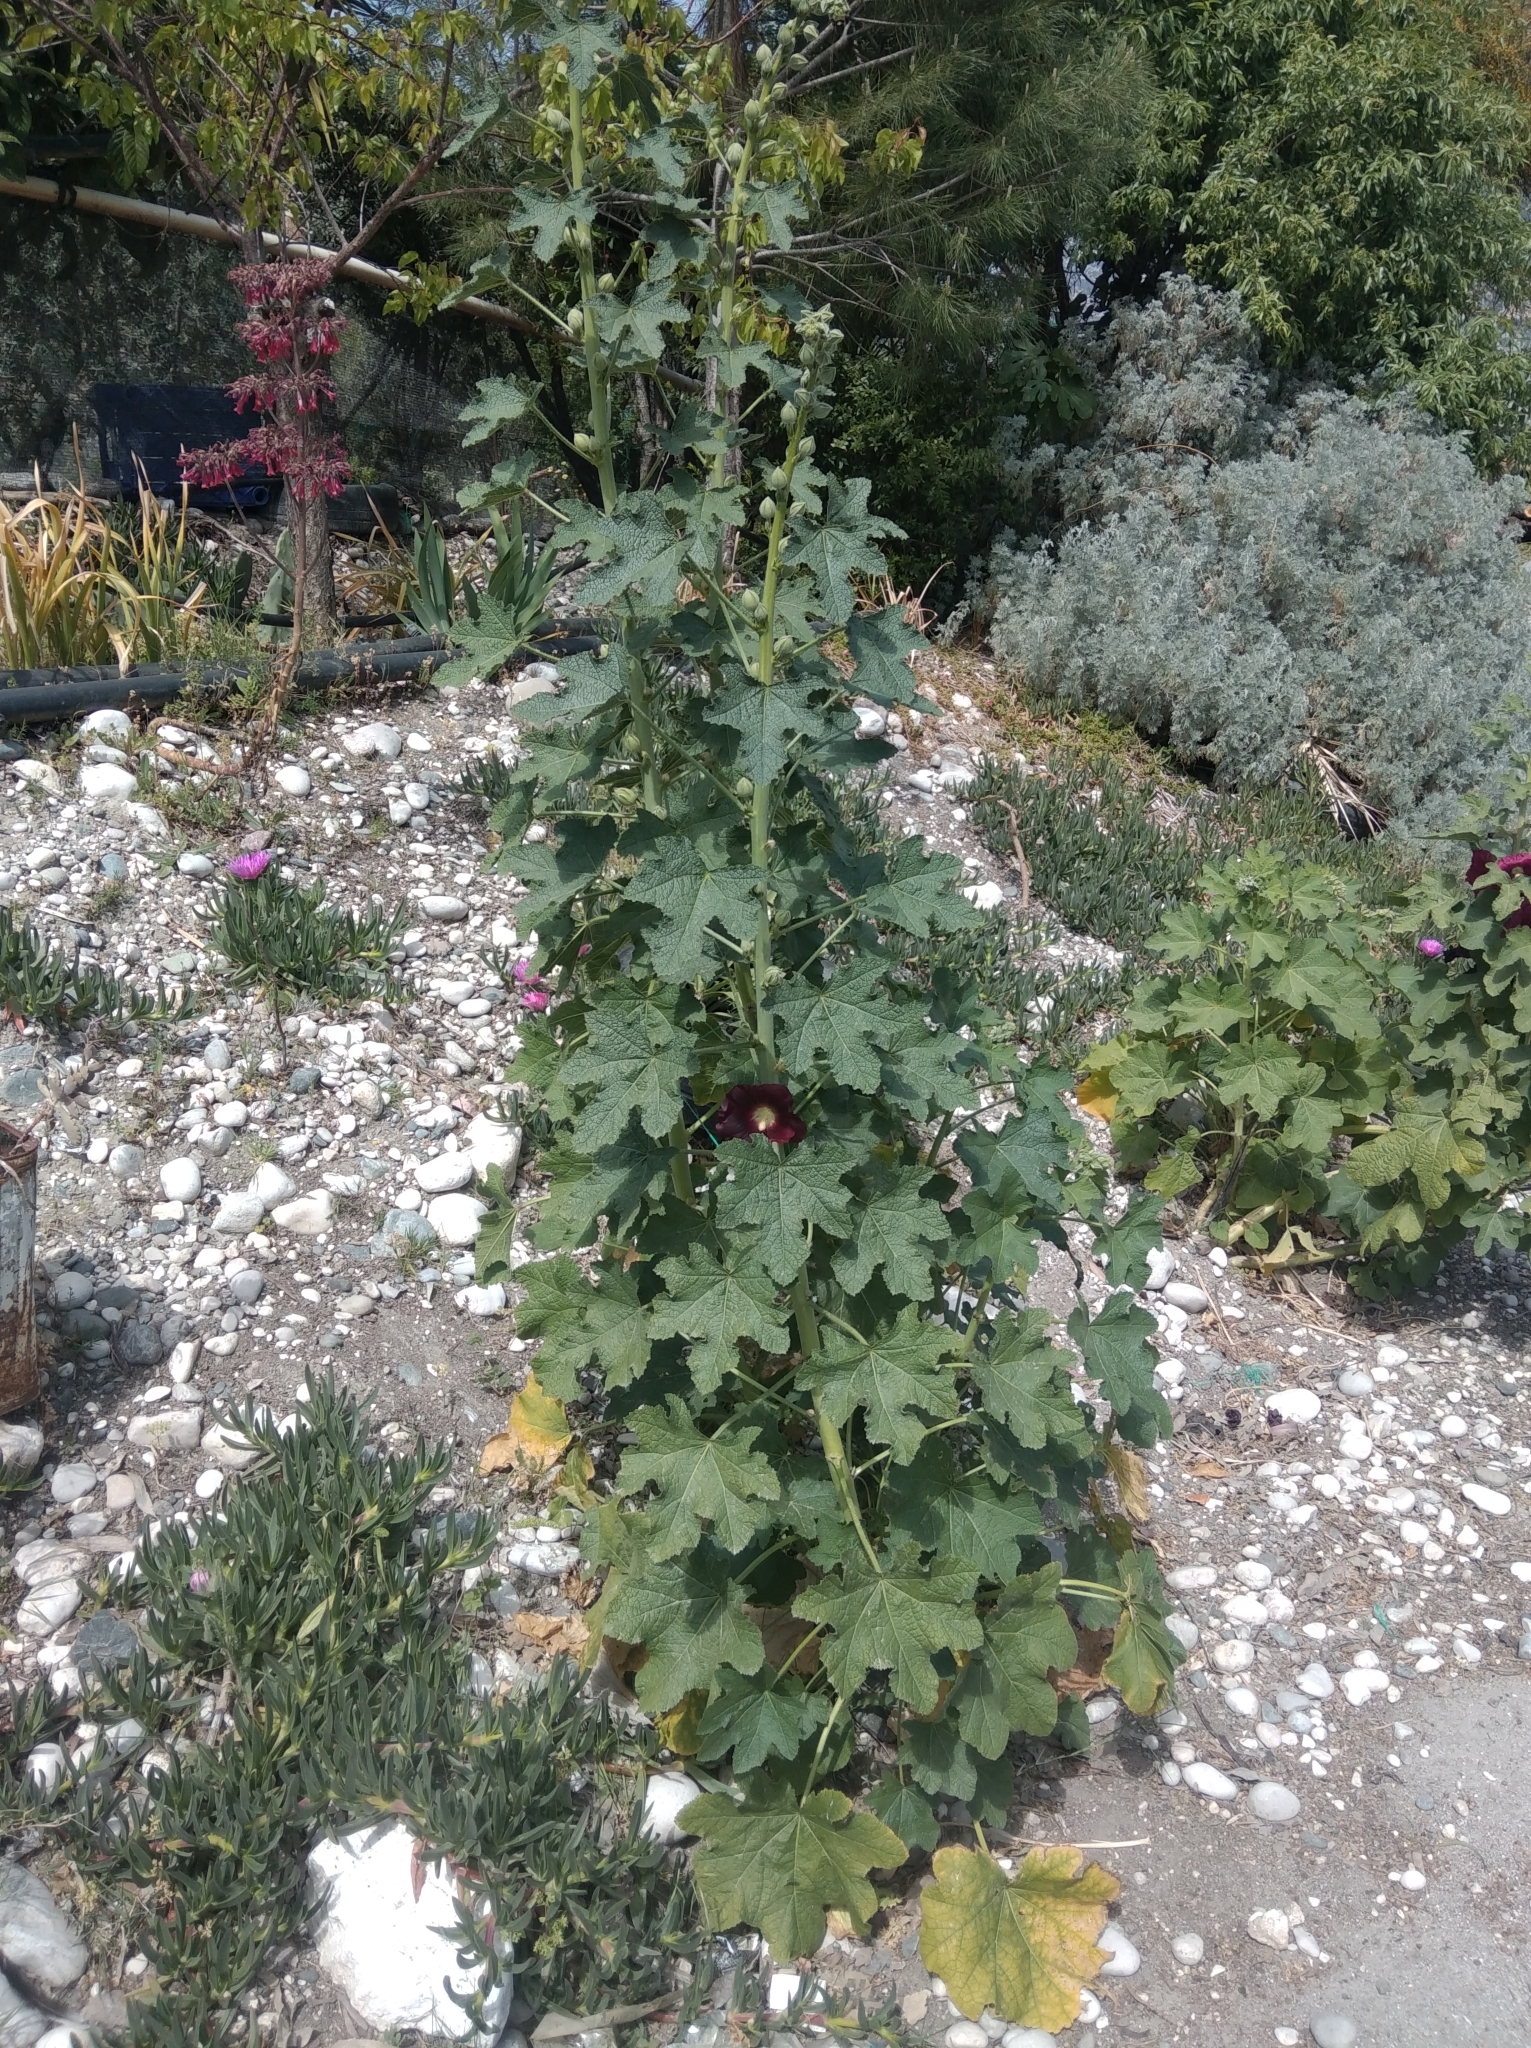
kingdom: Plantae
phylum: Tracheophyta
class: Magnoliopsida
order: Malvales
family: Malvaceae
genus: Alcea
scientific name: Alcea rosea
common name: Hollyhock
